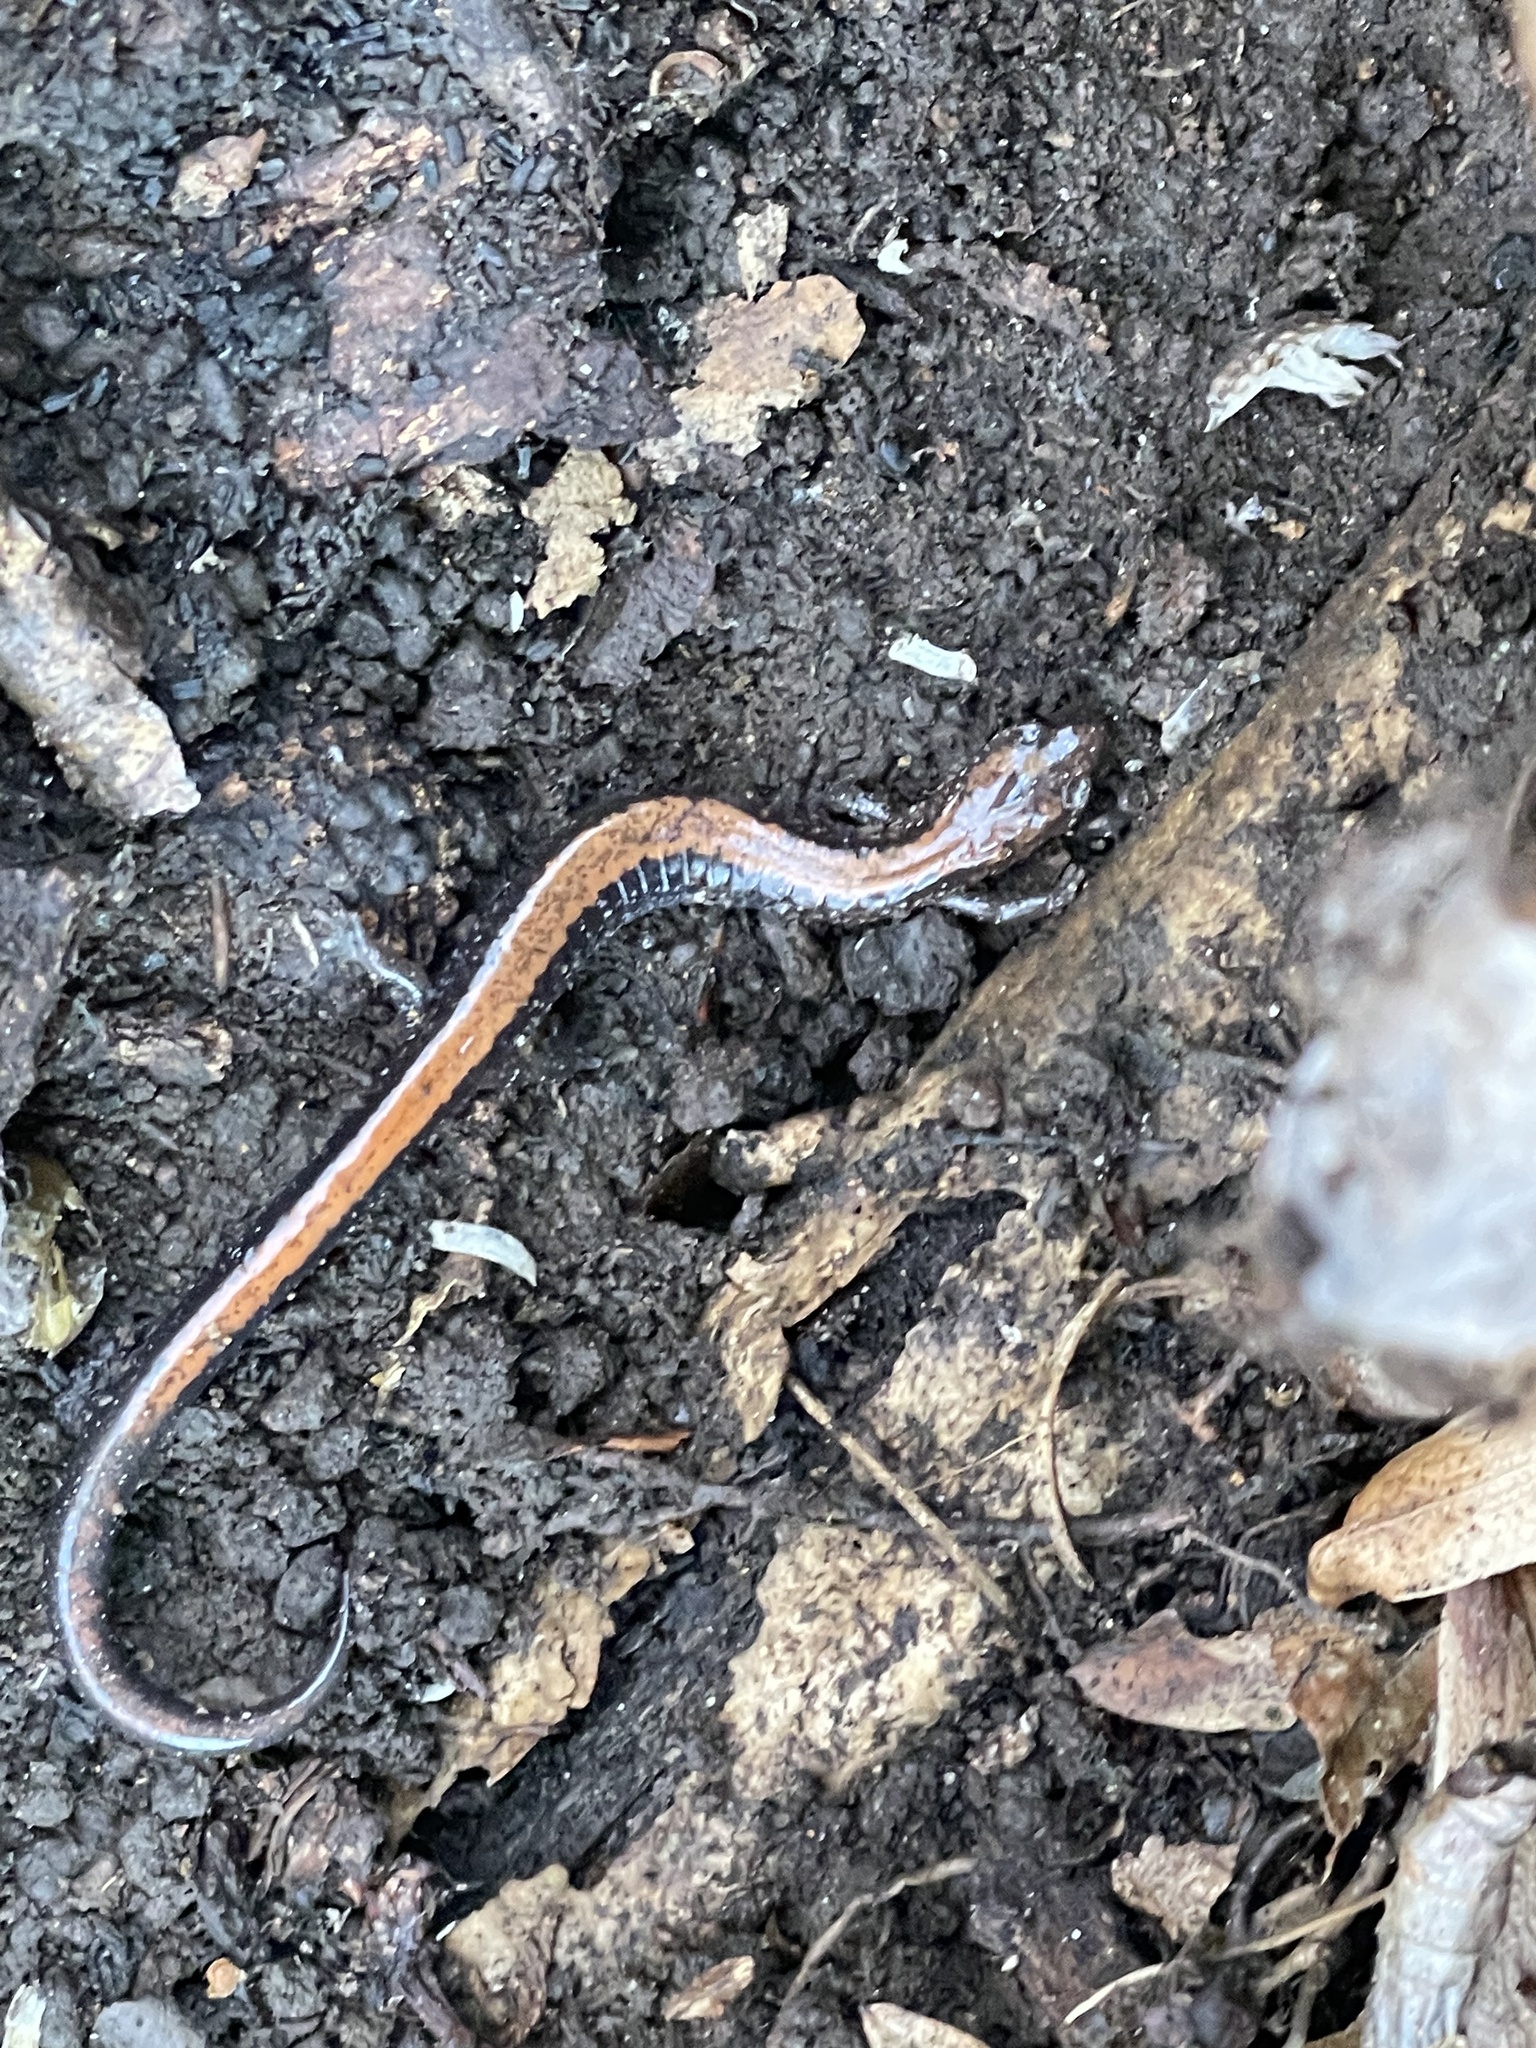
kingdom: Animalia
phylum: Chordata
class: Amphibia
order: Caudata
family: Plethodontidae
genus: Plethodon
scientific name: Plethodon cinereus
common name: Redback salamander
